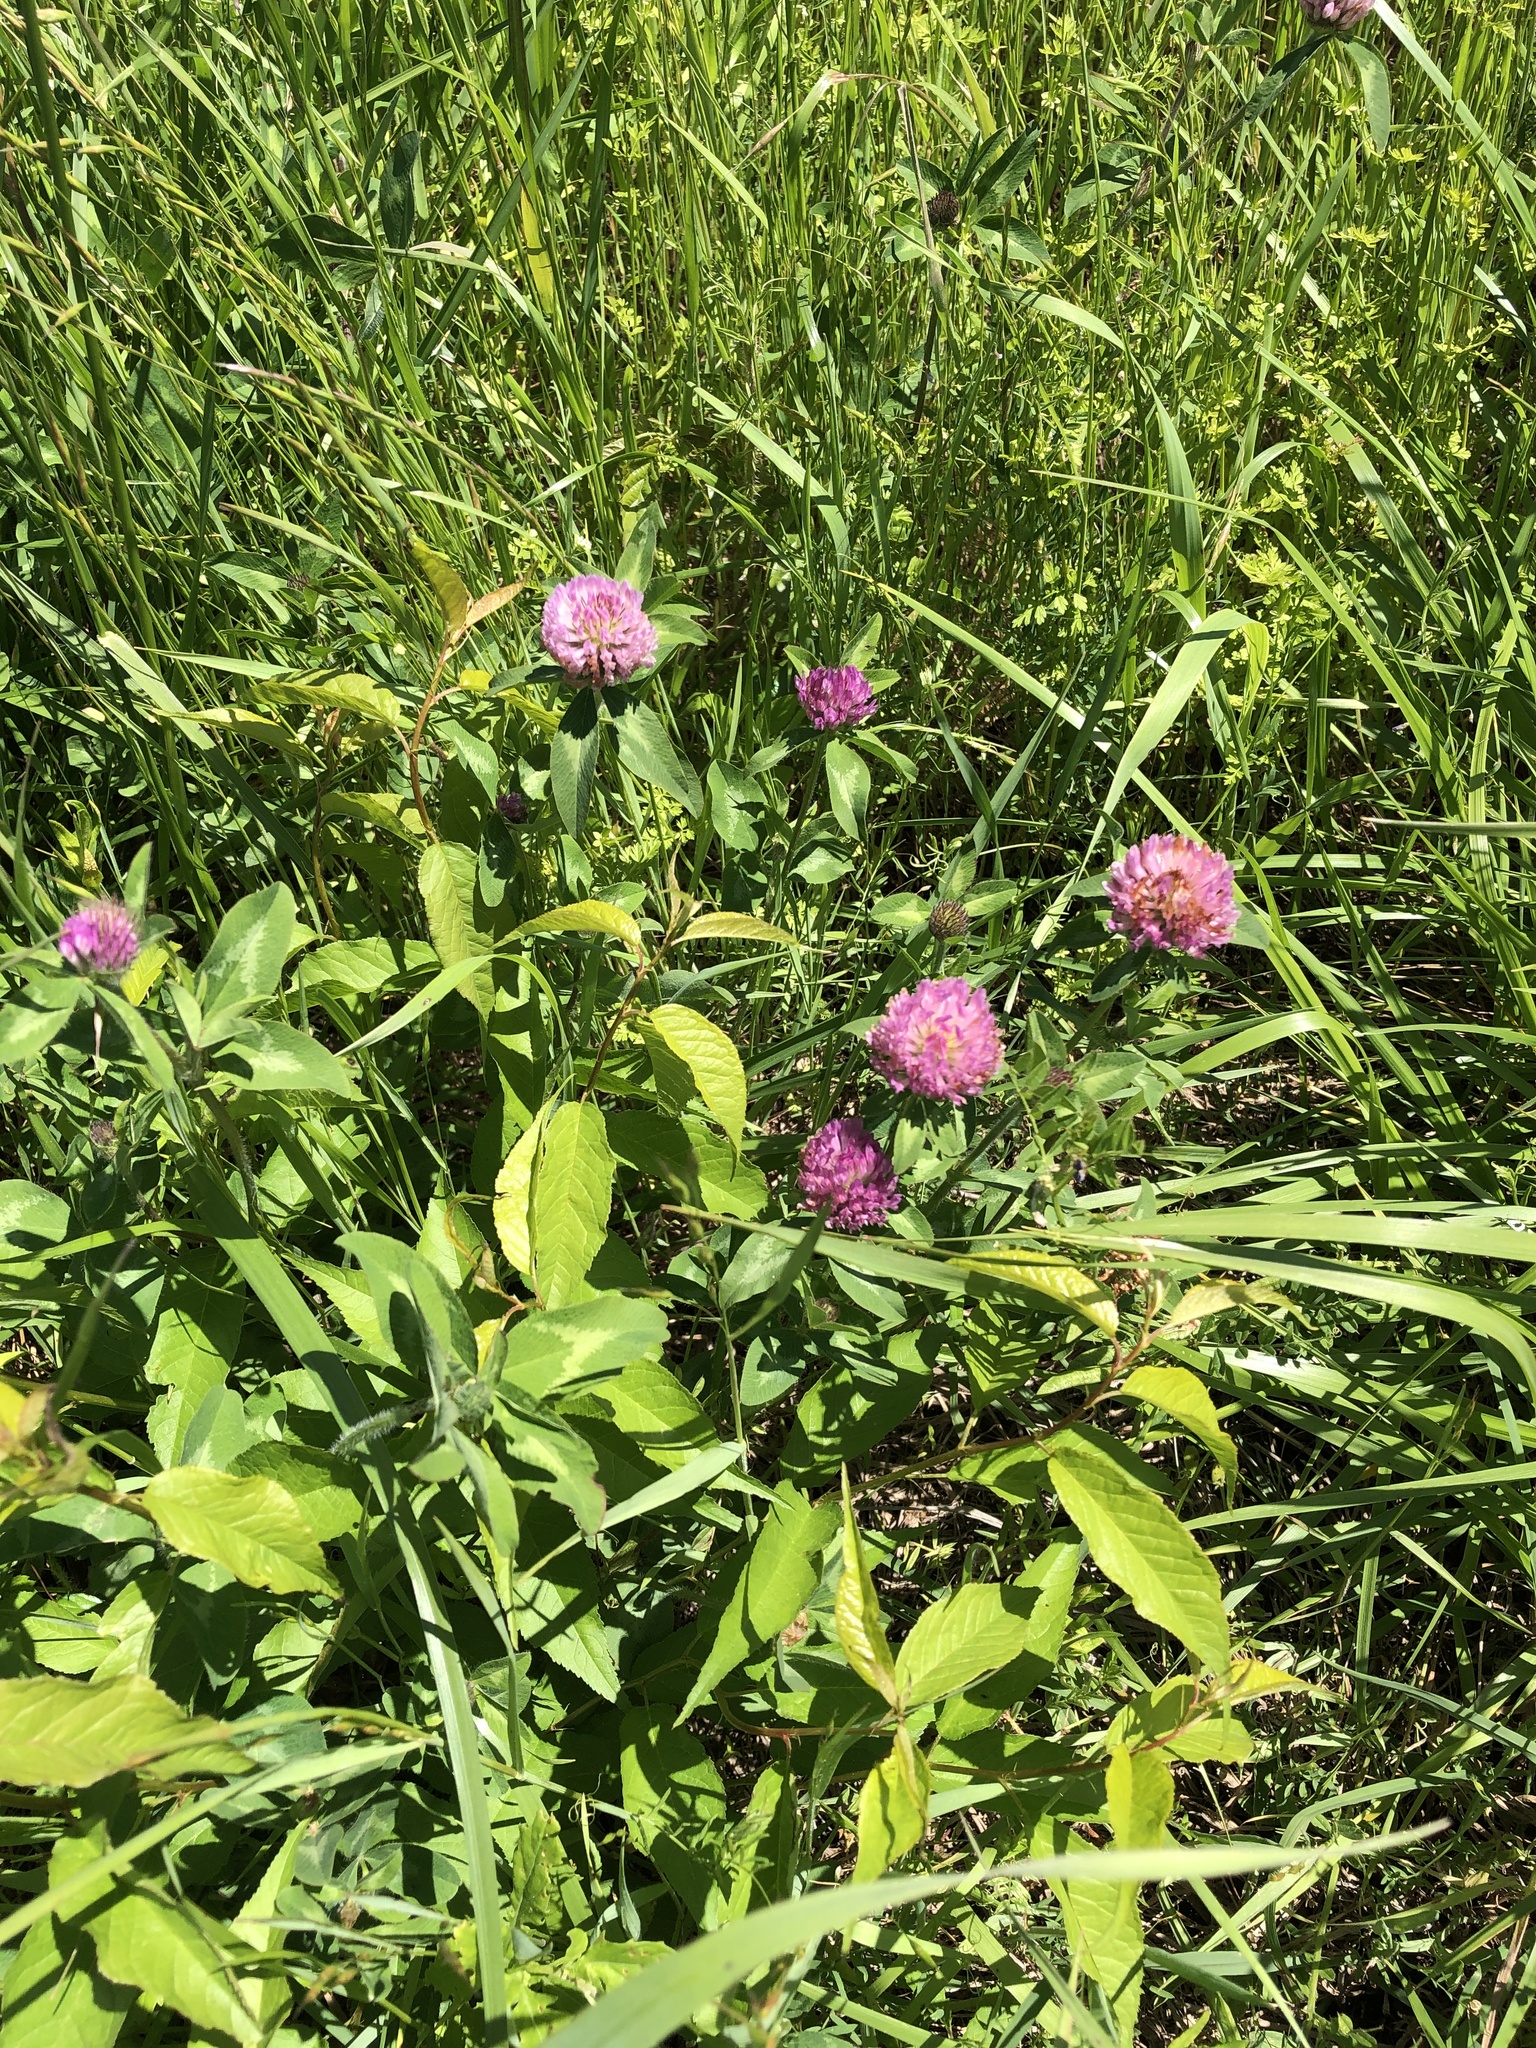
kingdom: Plantae
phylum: Tracheophyta
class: Magnoliopsida
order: Fabales
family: Fabaceae
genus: Trifolium
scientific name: Trifolium pratense
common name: Red clover
